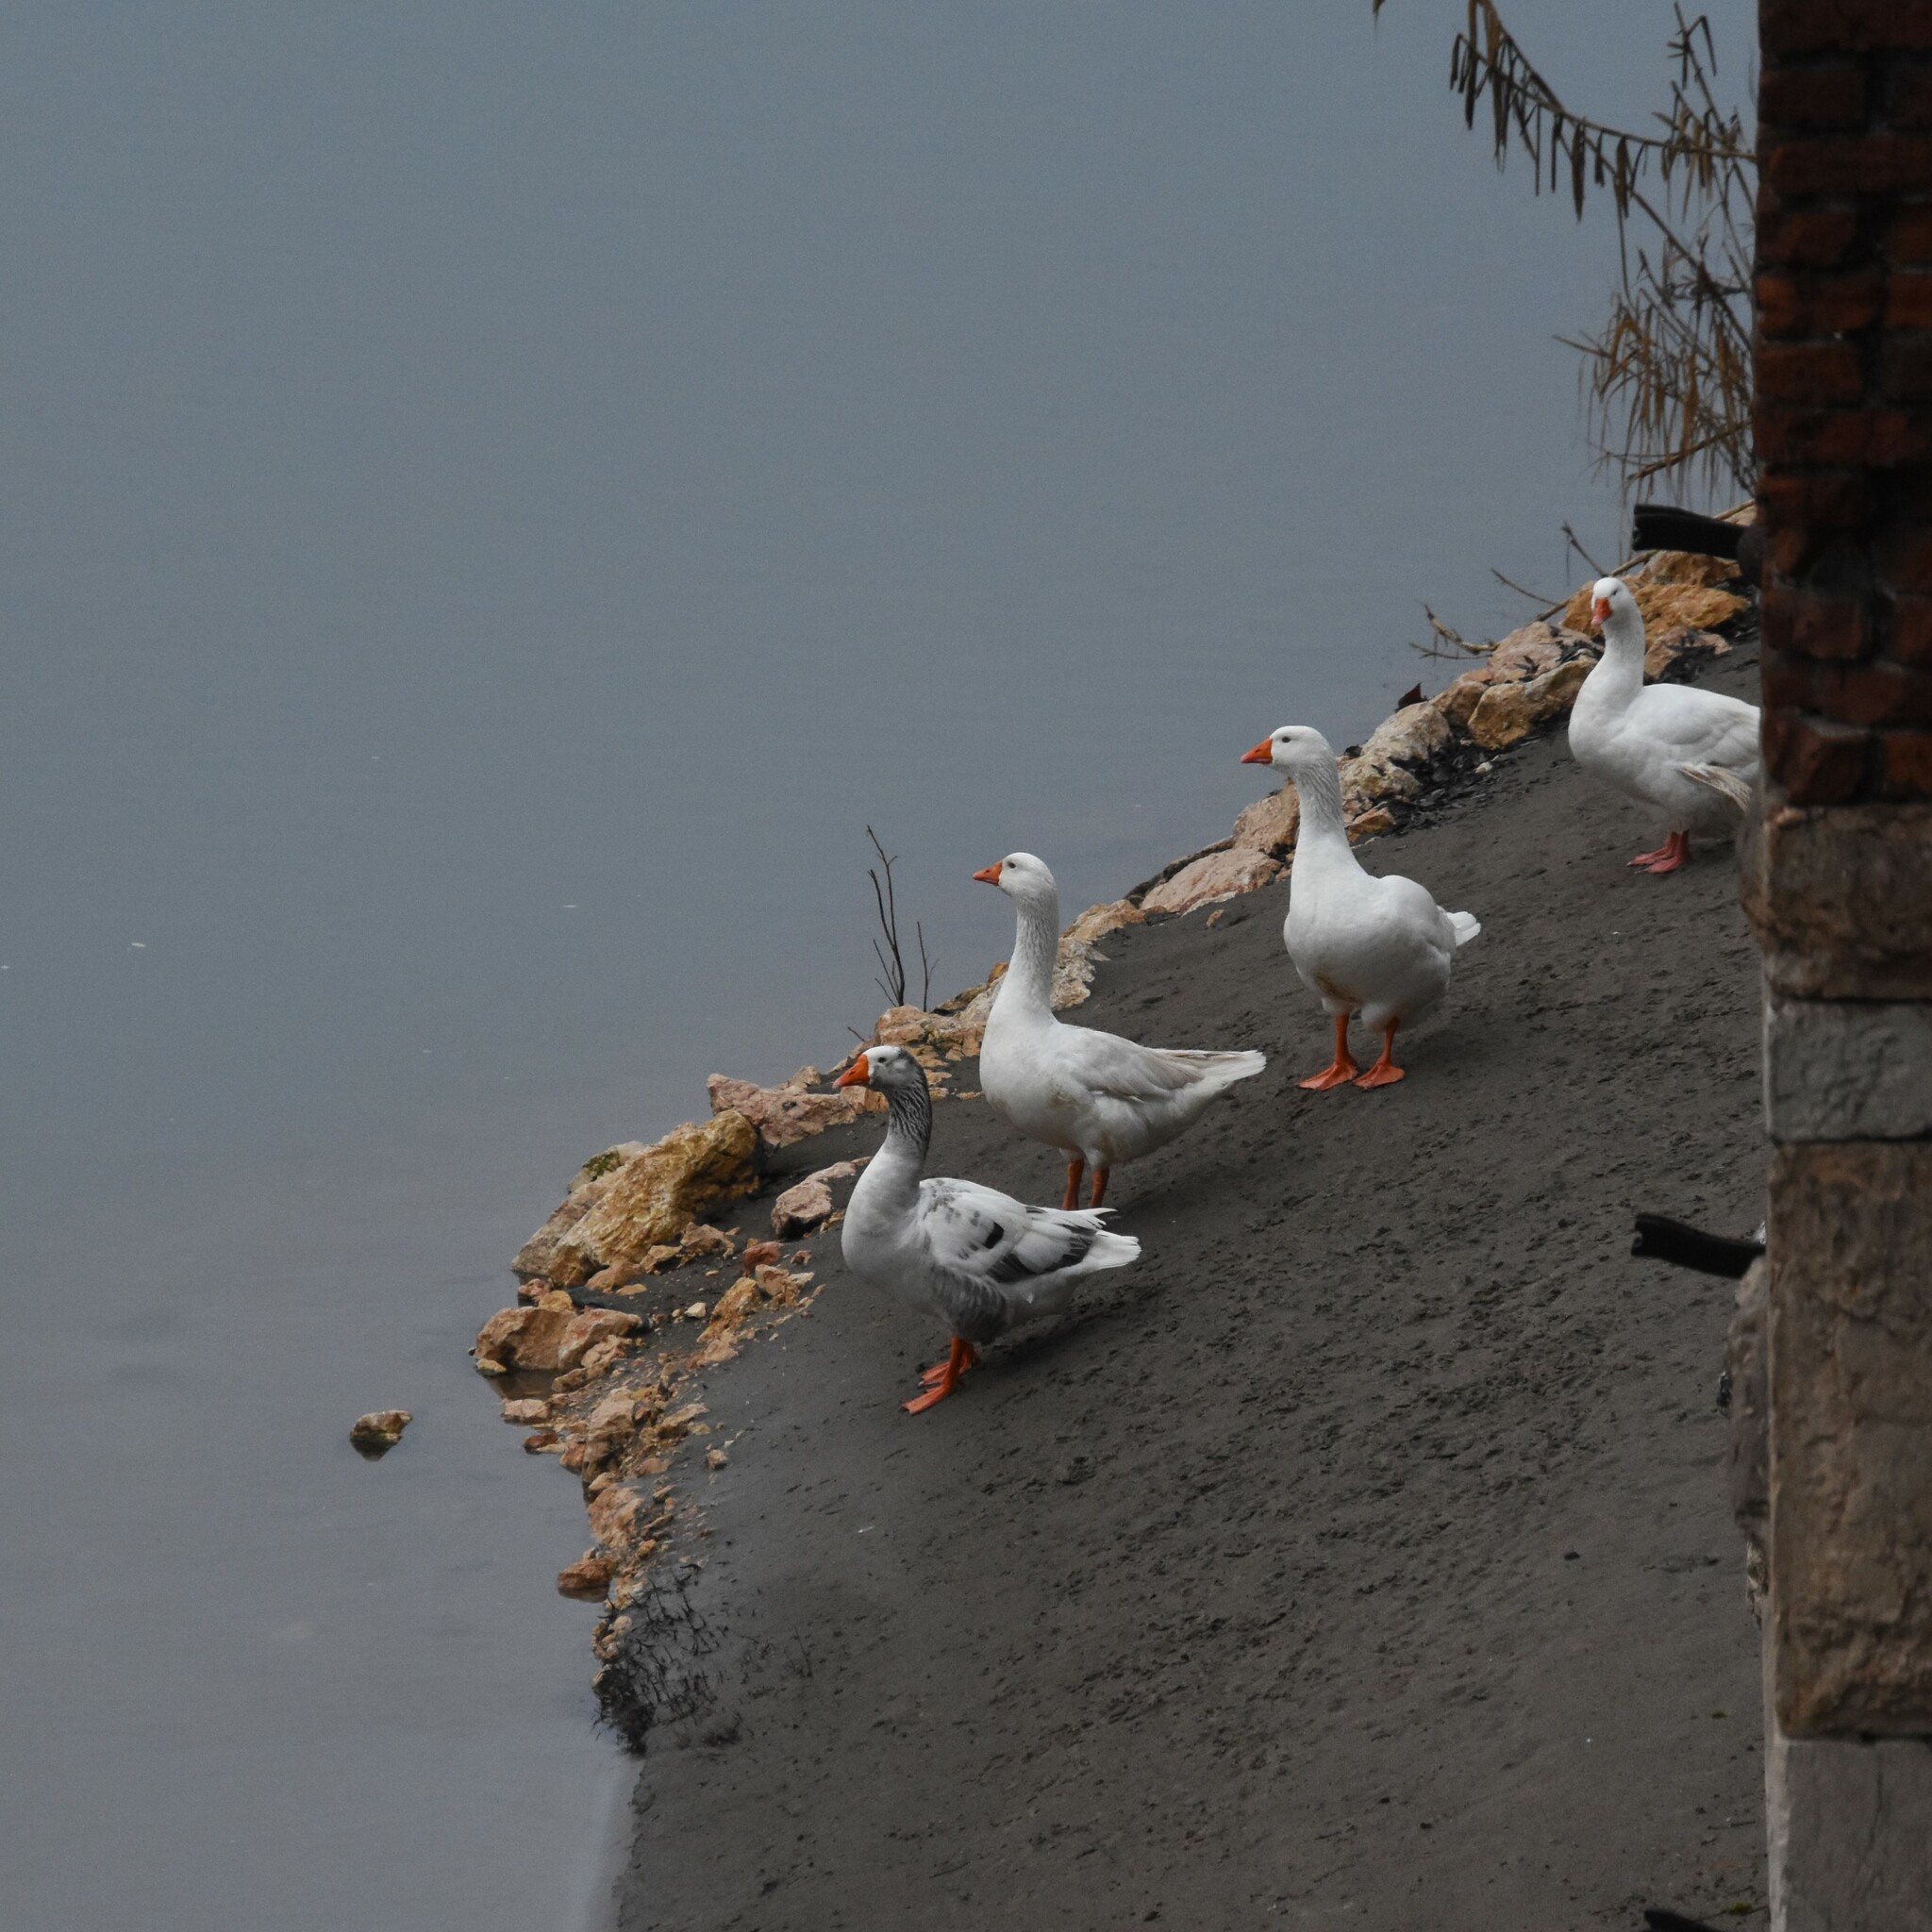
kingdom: Animalia
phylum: Chordata
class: Aves
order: Anseriformes
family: Anatidae
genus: Anser
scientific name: Anser anser
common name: Greylag goose
